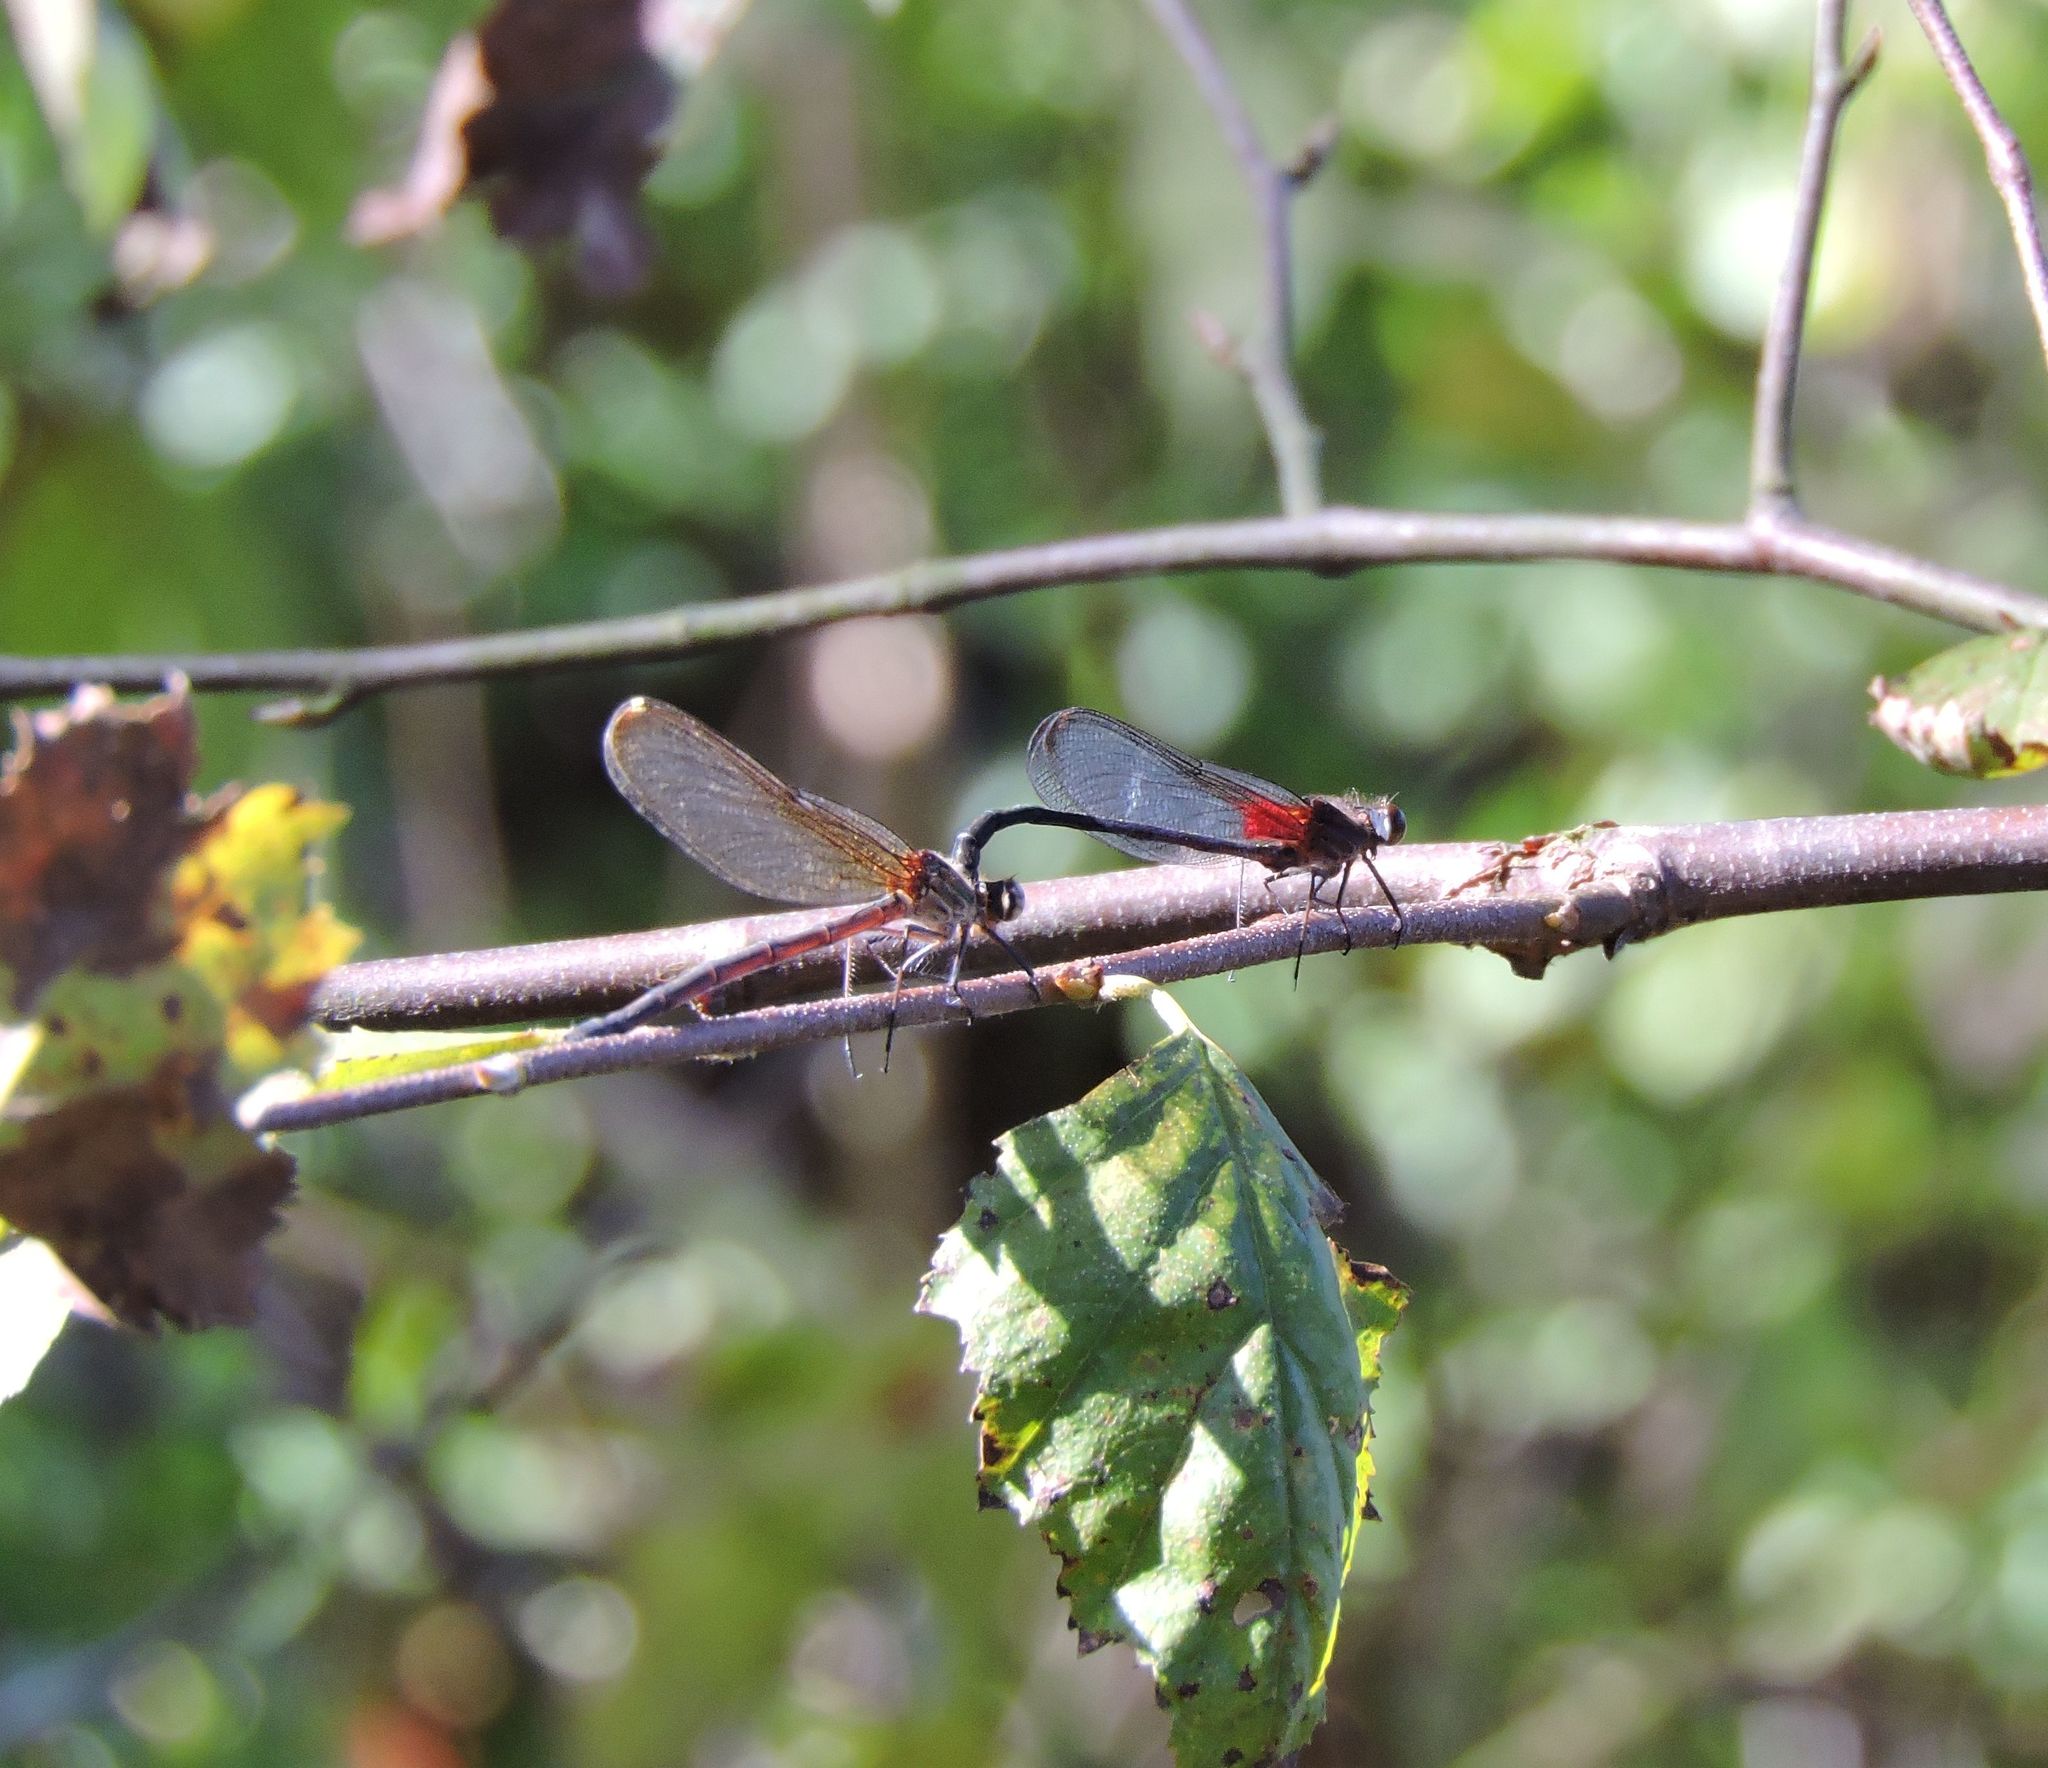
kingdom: Animalia
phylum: Arthropoda
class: Insecta
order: Odonata
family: Calopterygidae
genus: Hetaerina
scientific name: Hetaerina titia
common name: Smoky rubyspot
